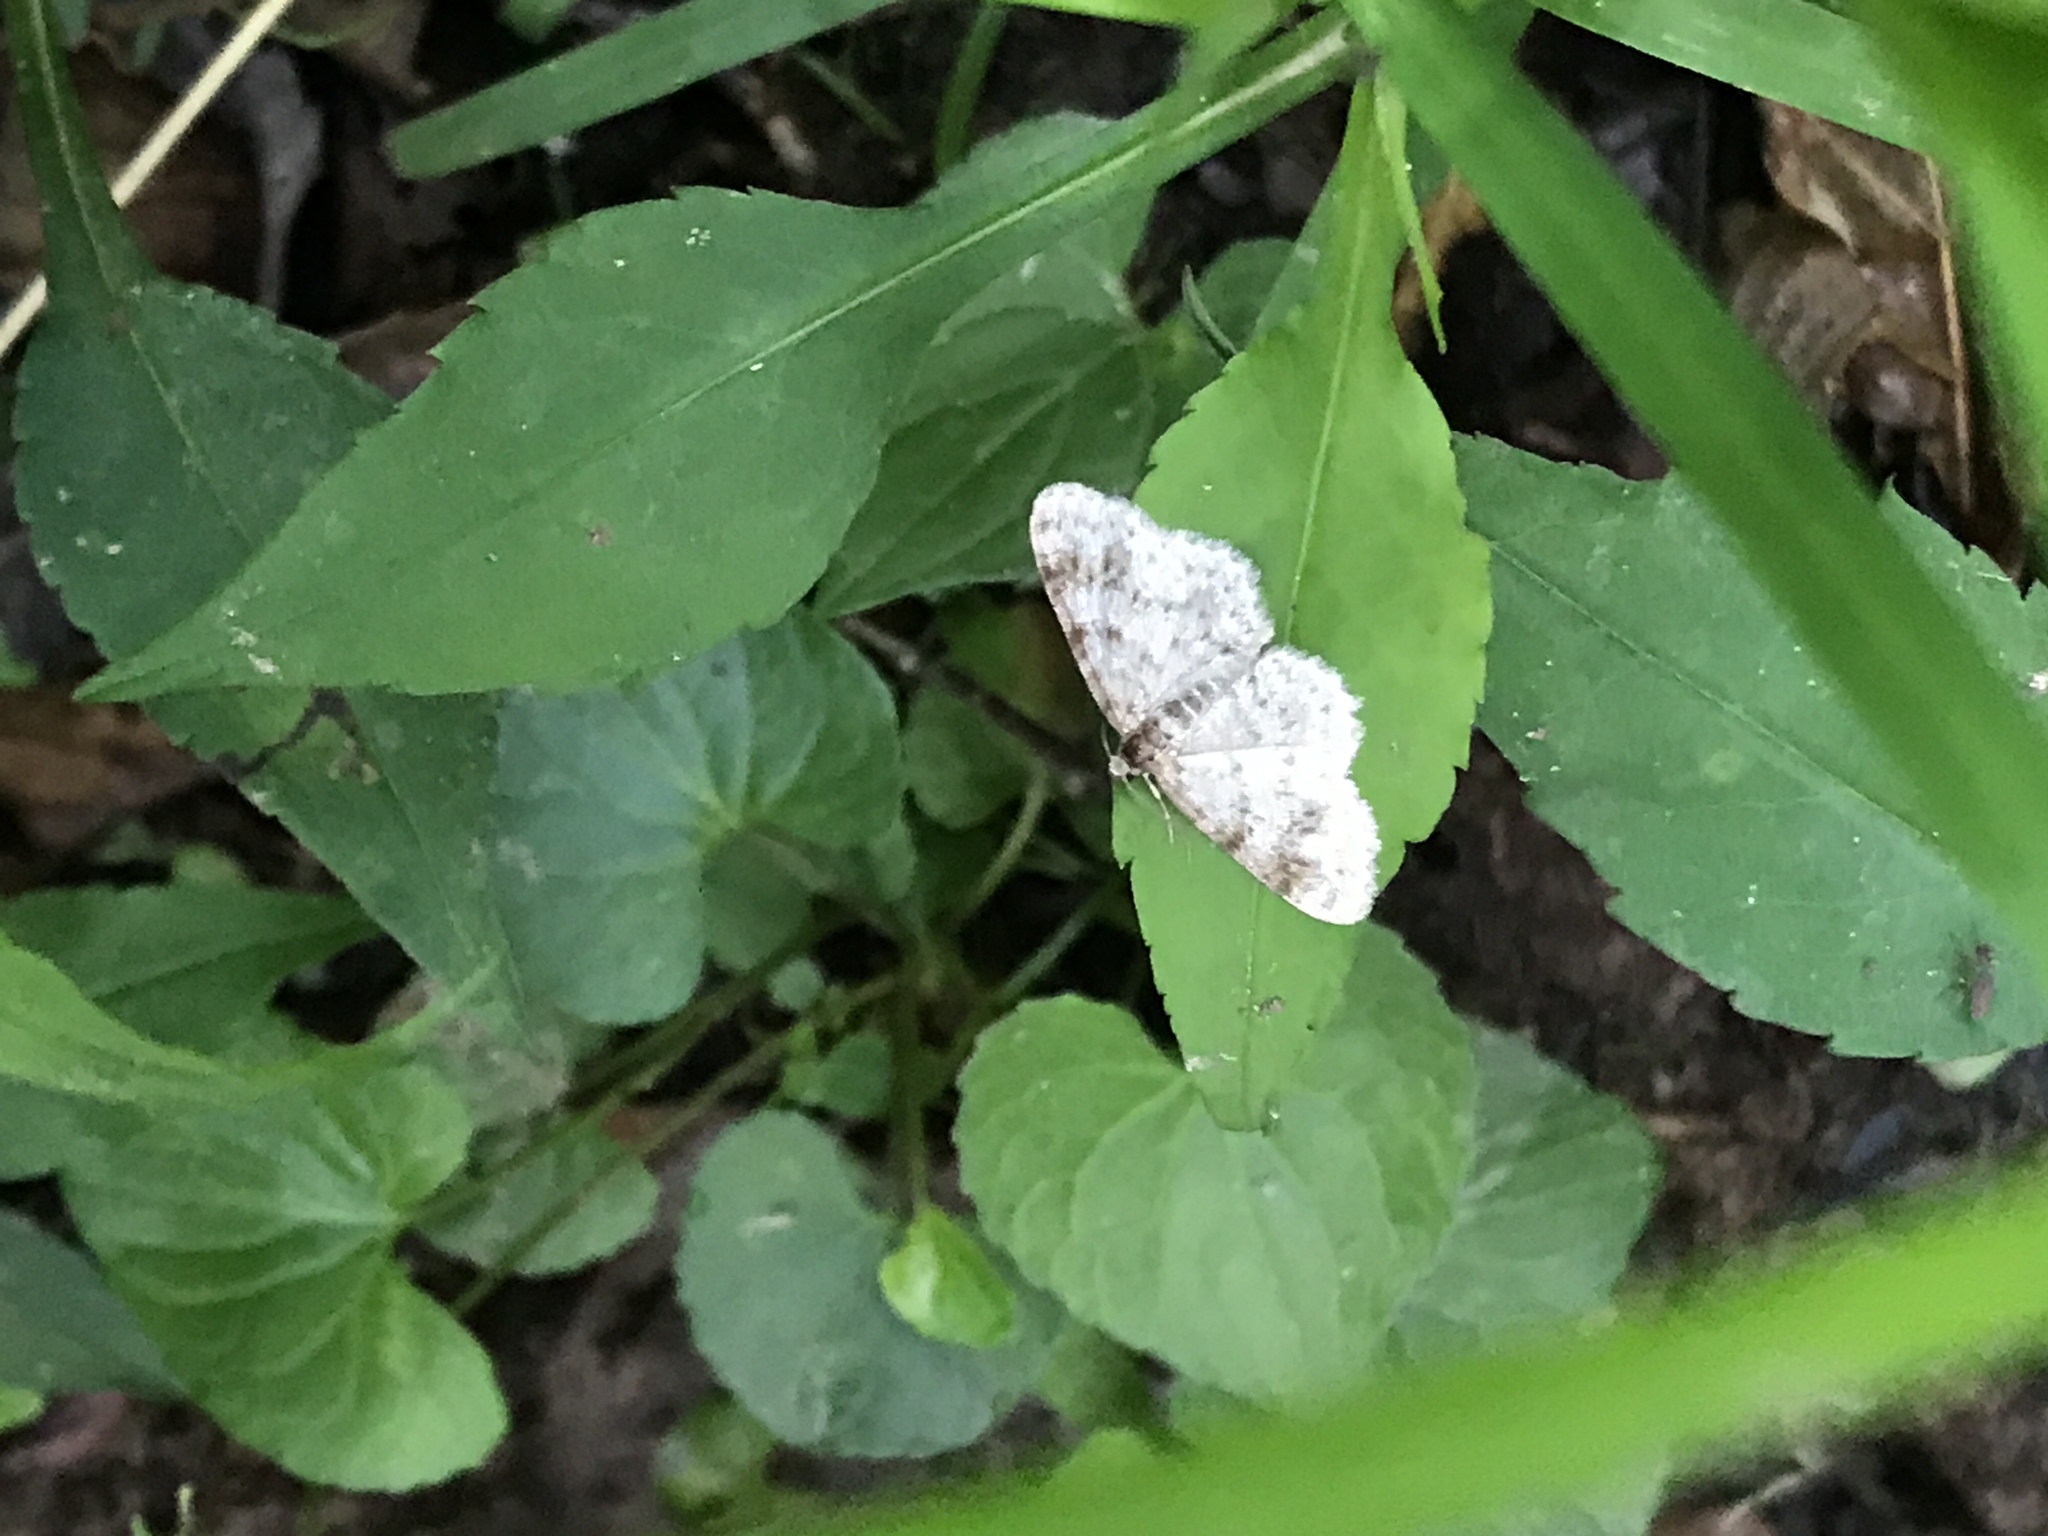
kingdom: Animalia
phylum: Arthropoda
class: Insecta
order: Lepidoptera
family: Geometridae
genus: Hydrelia
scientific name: Hydrelia
